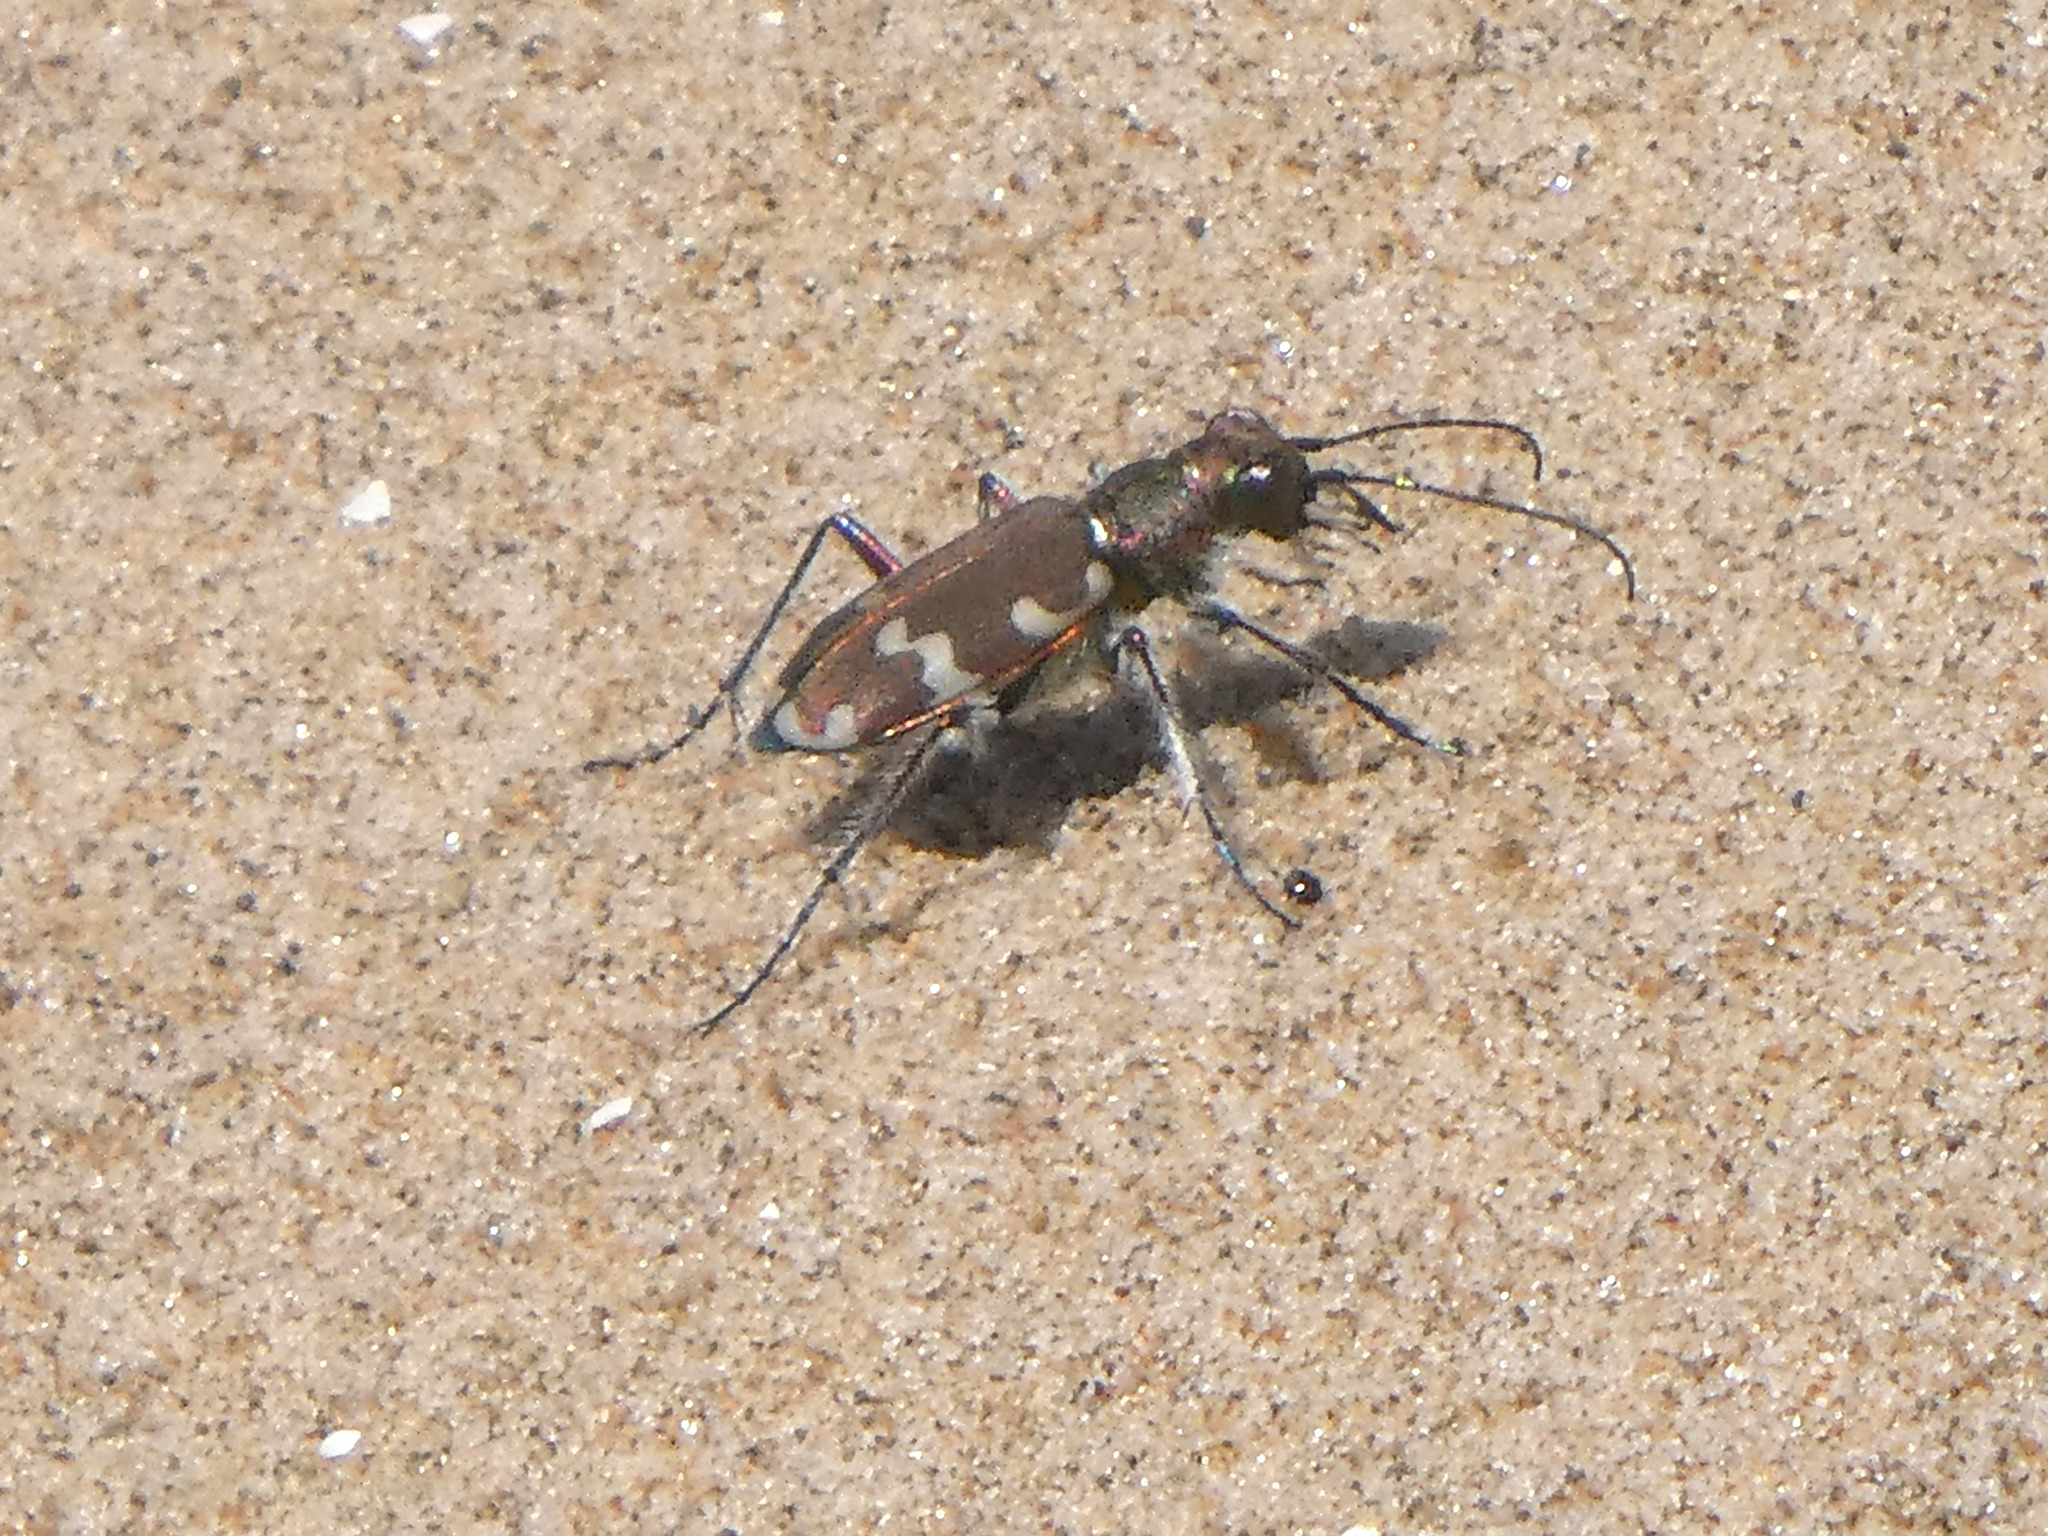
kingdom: Animalia
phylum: Arthropoda
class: Insecta
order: Coleoptera
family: Carabidae
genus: Cicindela
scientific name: Cicindela hybrida
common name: Northern dune tiger beetle
